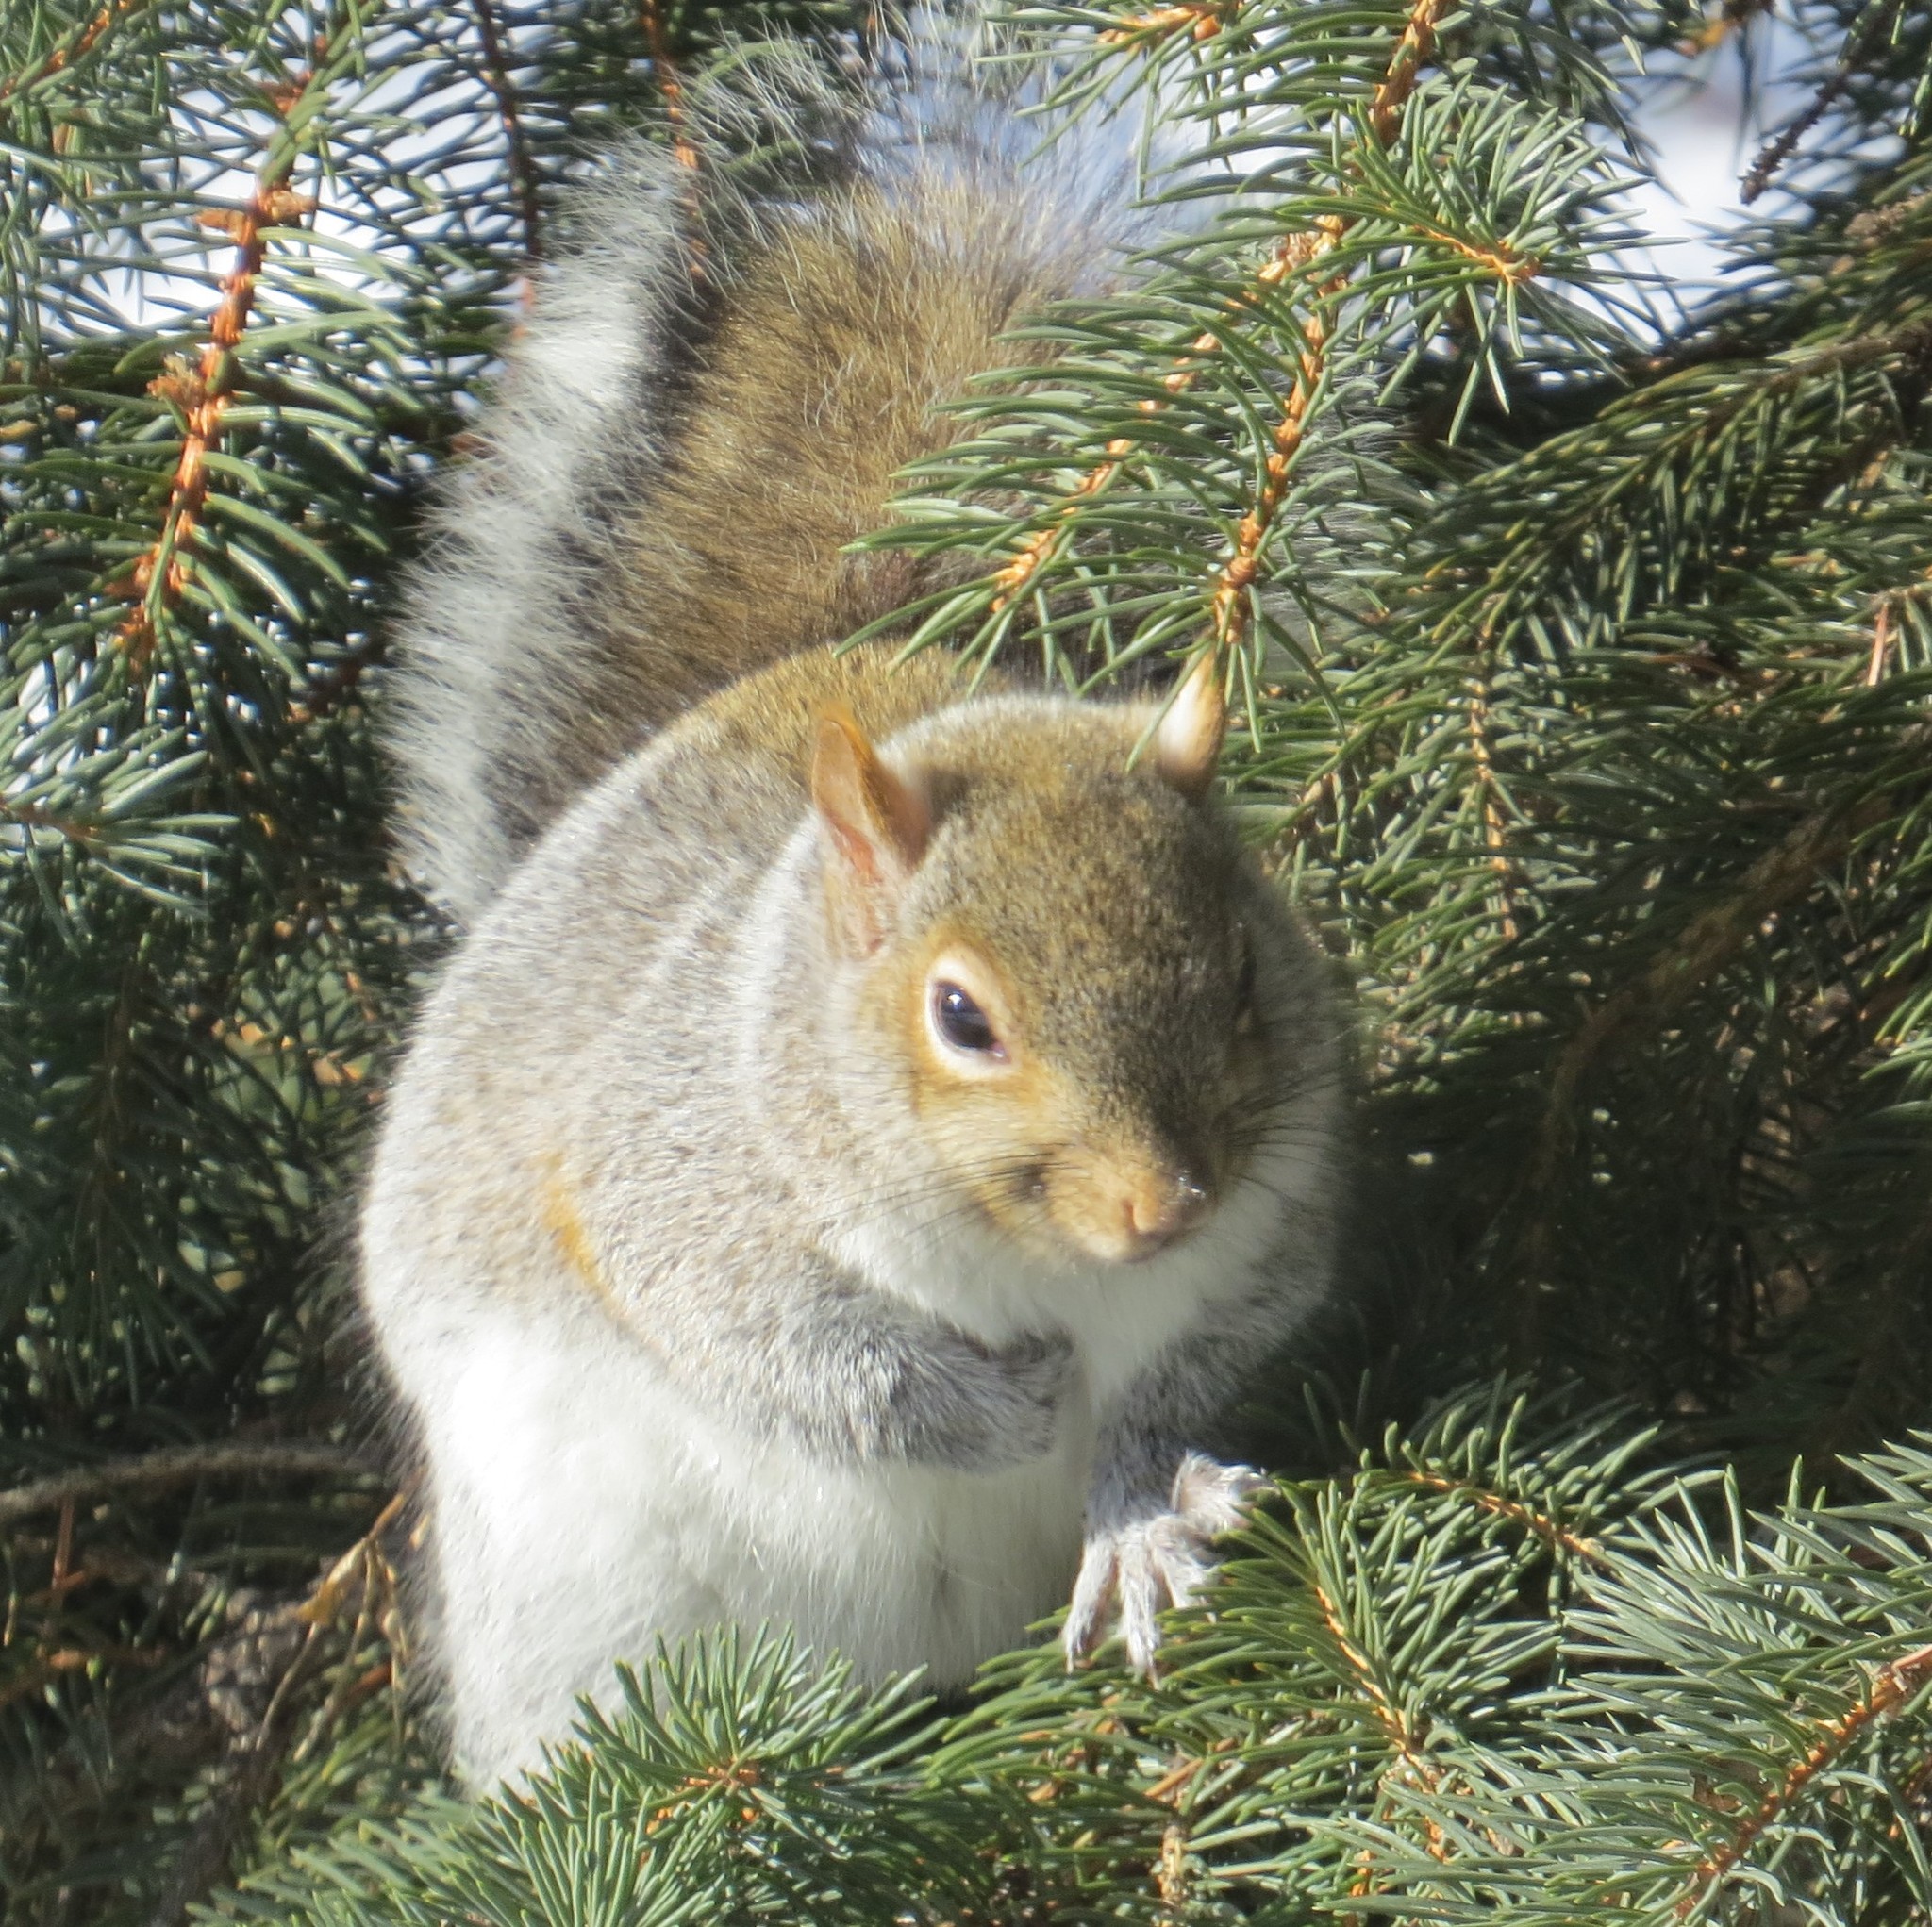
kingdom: Animalia
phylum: Chordata
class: Mammalia
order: Rodentia
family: Sciuridae
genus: Sciurus
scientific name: Sciurus carolinensis
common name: Eastern gray squirrel
